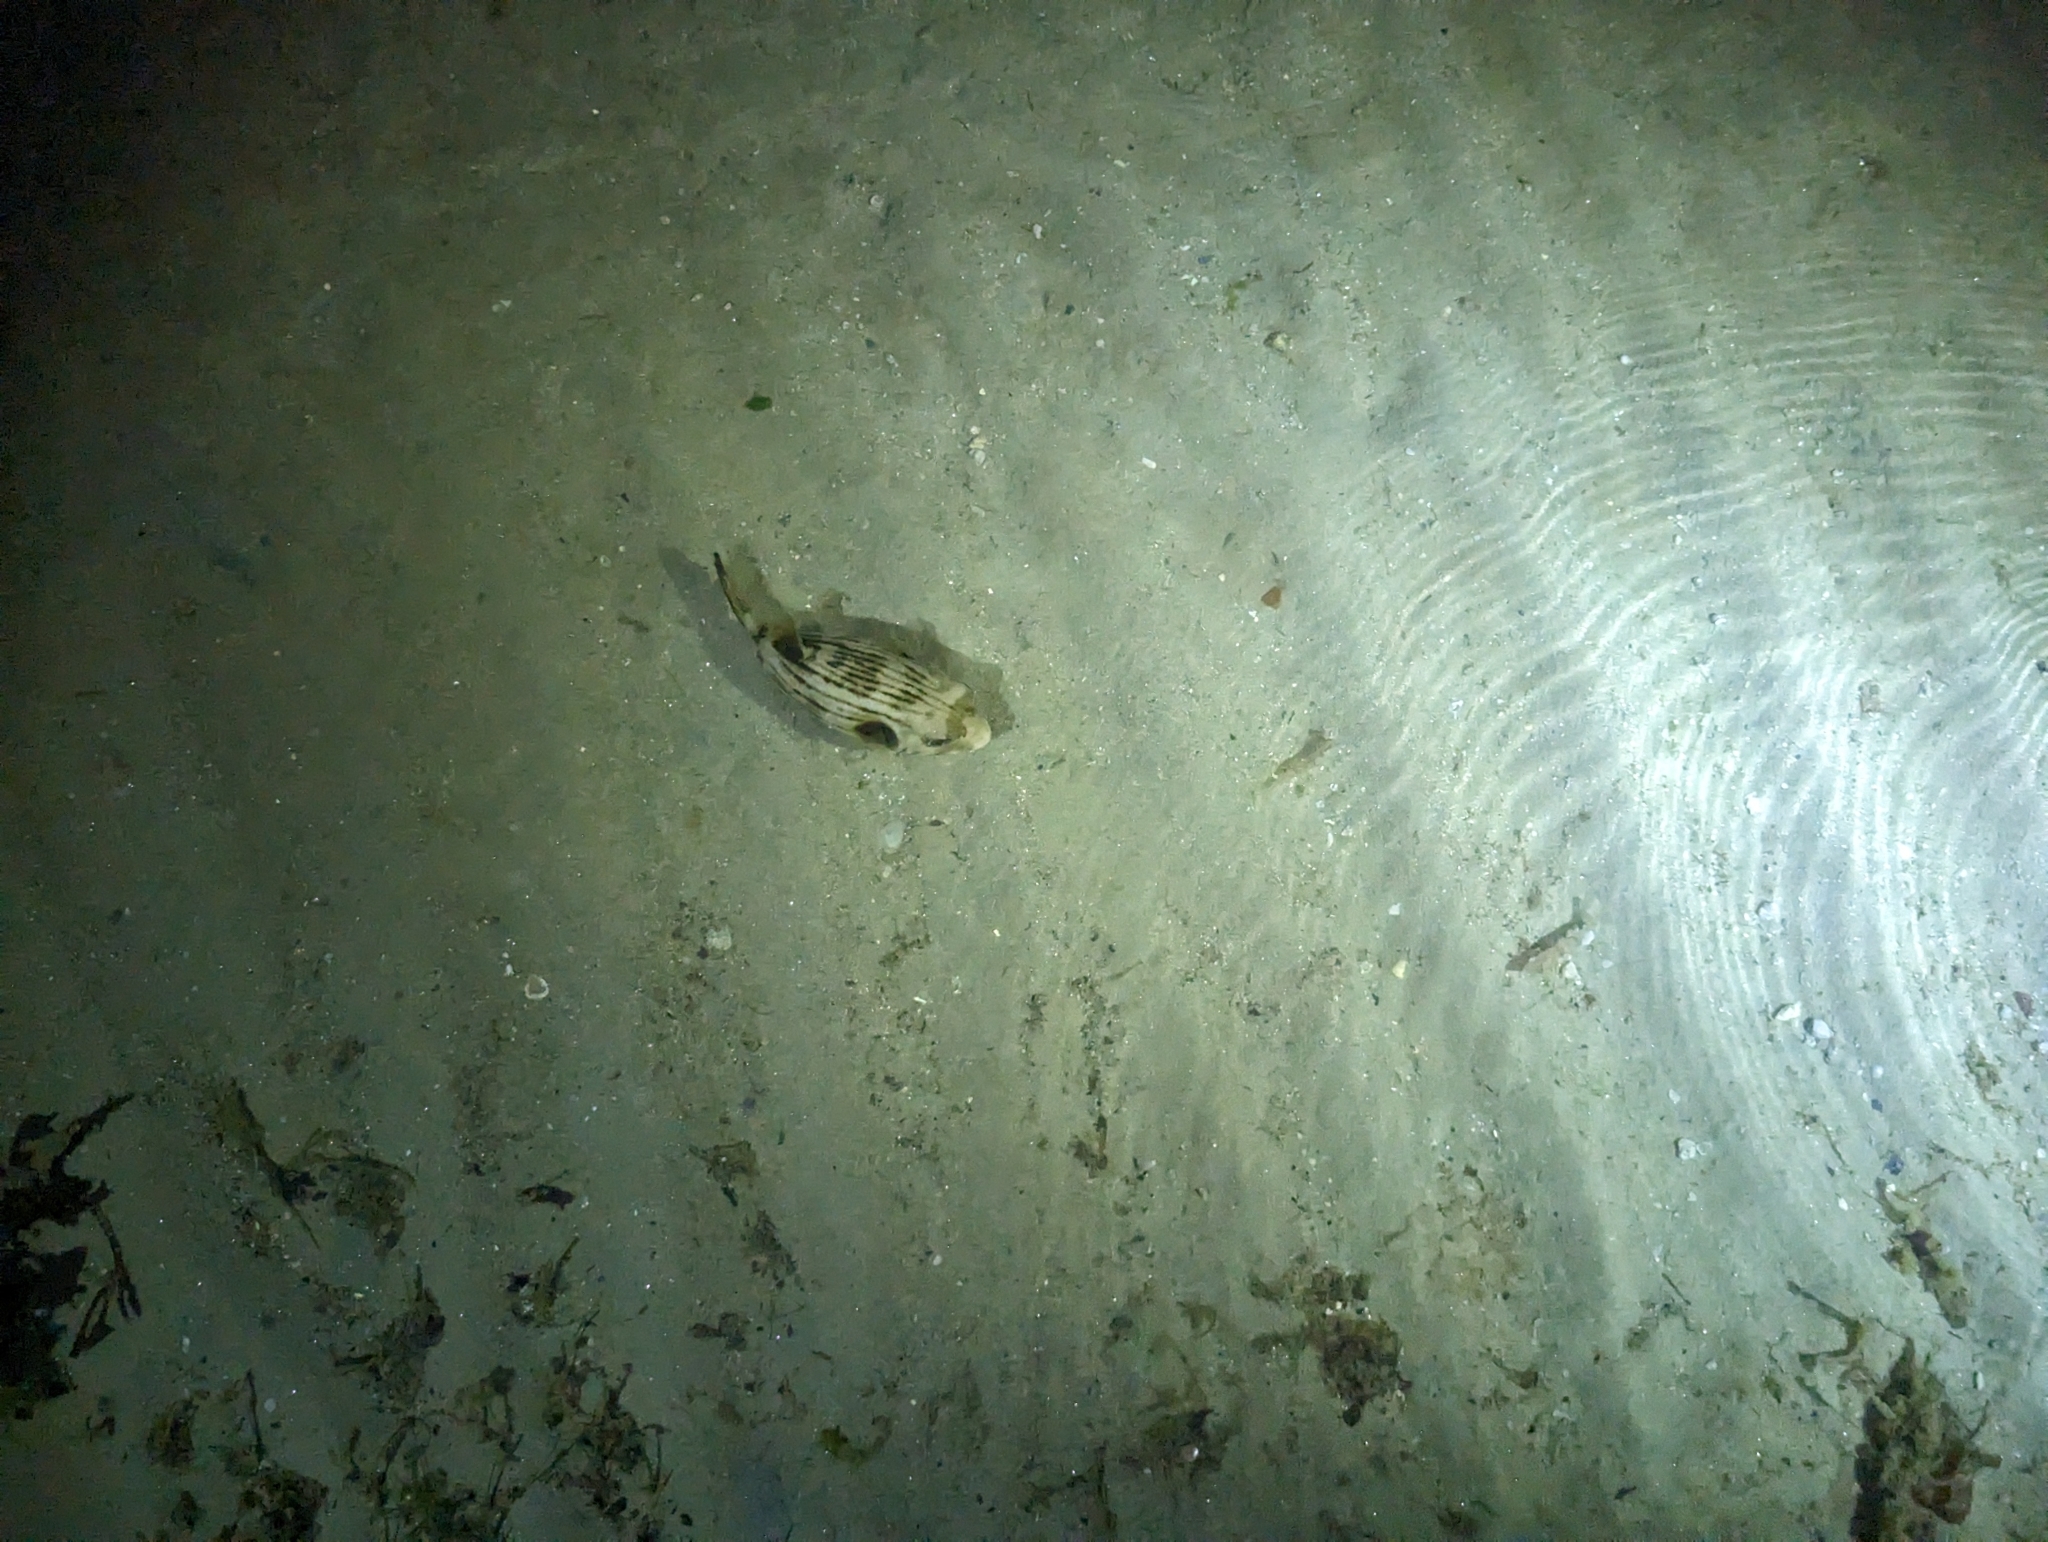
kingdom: Animalia
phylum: Chordata
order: Tetraodontiformes
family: Tetraodontidae
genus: Arothron
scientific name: Arothron manilensis
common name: Narrow-lined puffer
